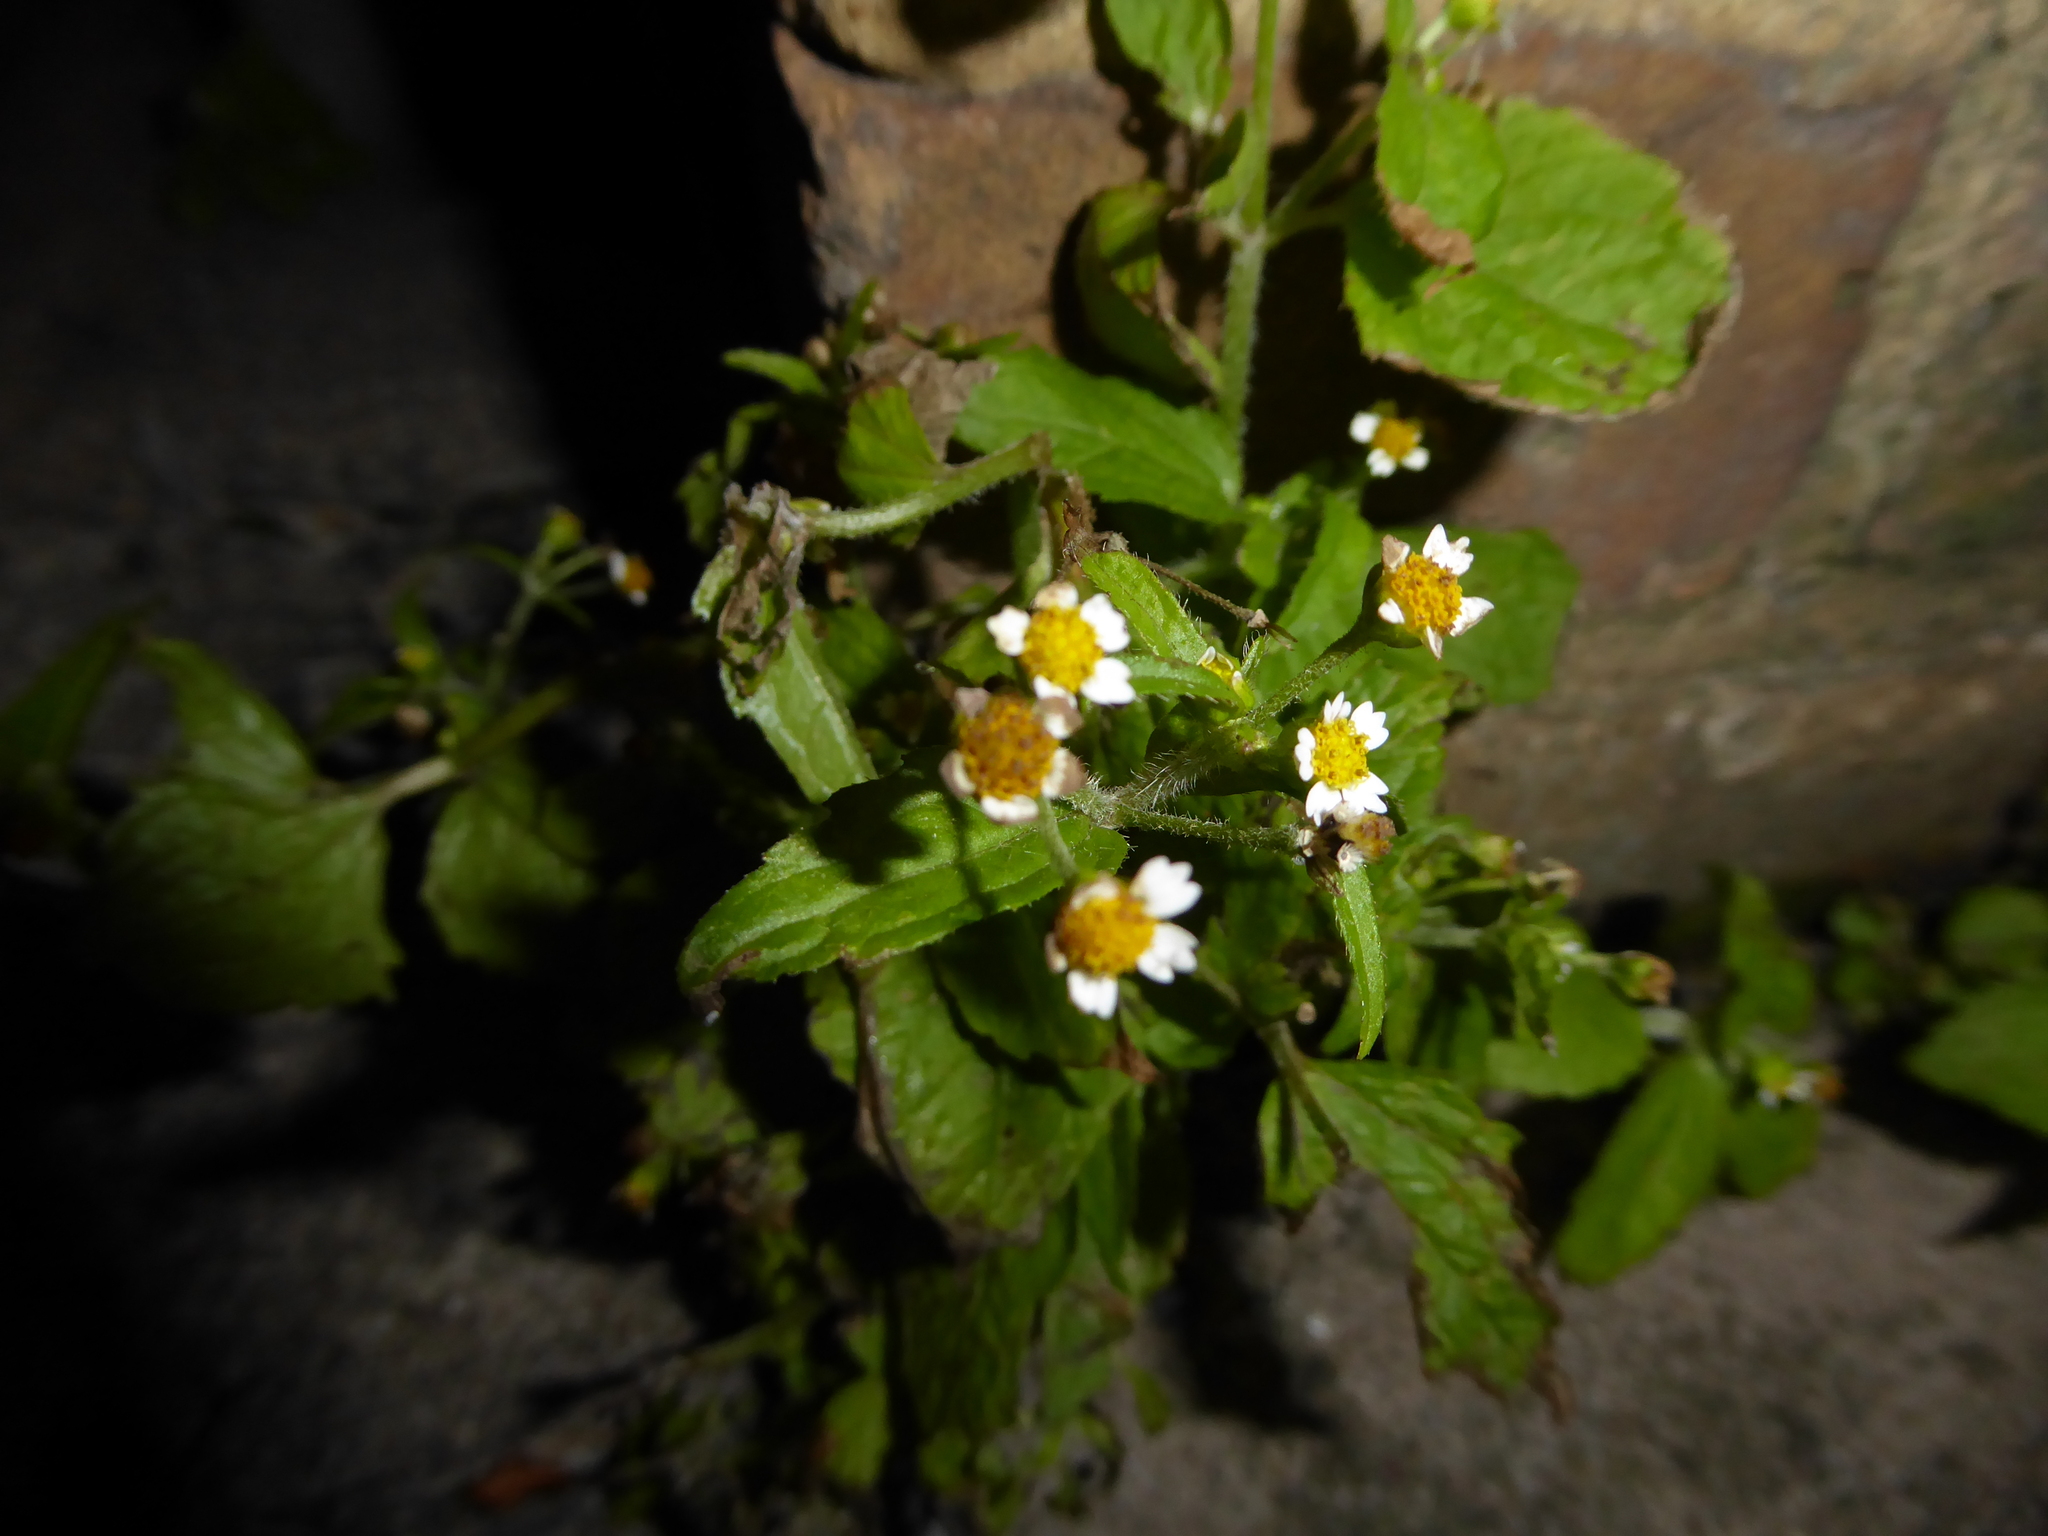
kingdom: Plantae
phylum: Tracheophyta
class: Magnoliopsida
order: Asterales
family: Asteraceae
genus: Galinsoga
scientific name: Galinsoga quadriradiata
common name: Shaggy soldier
